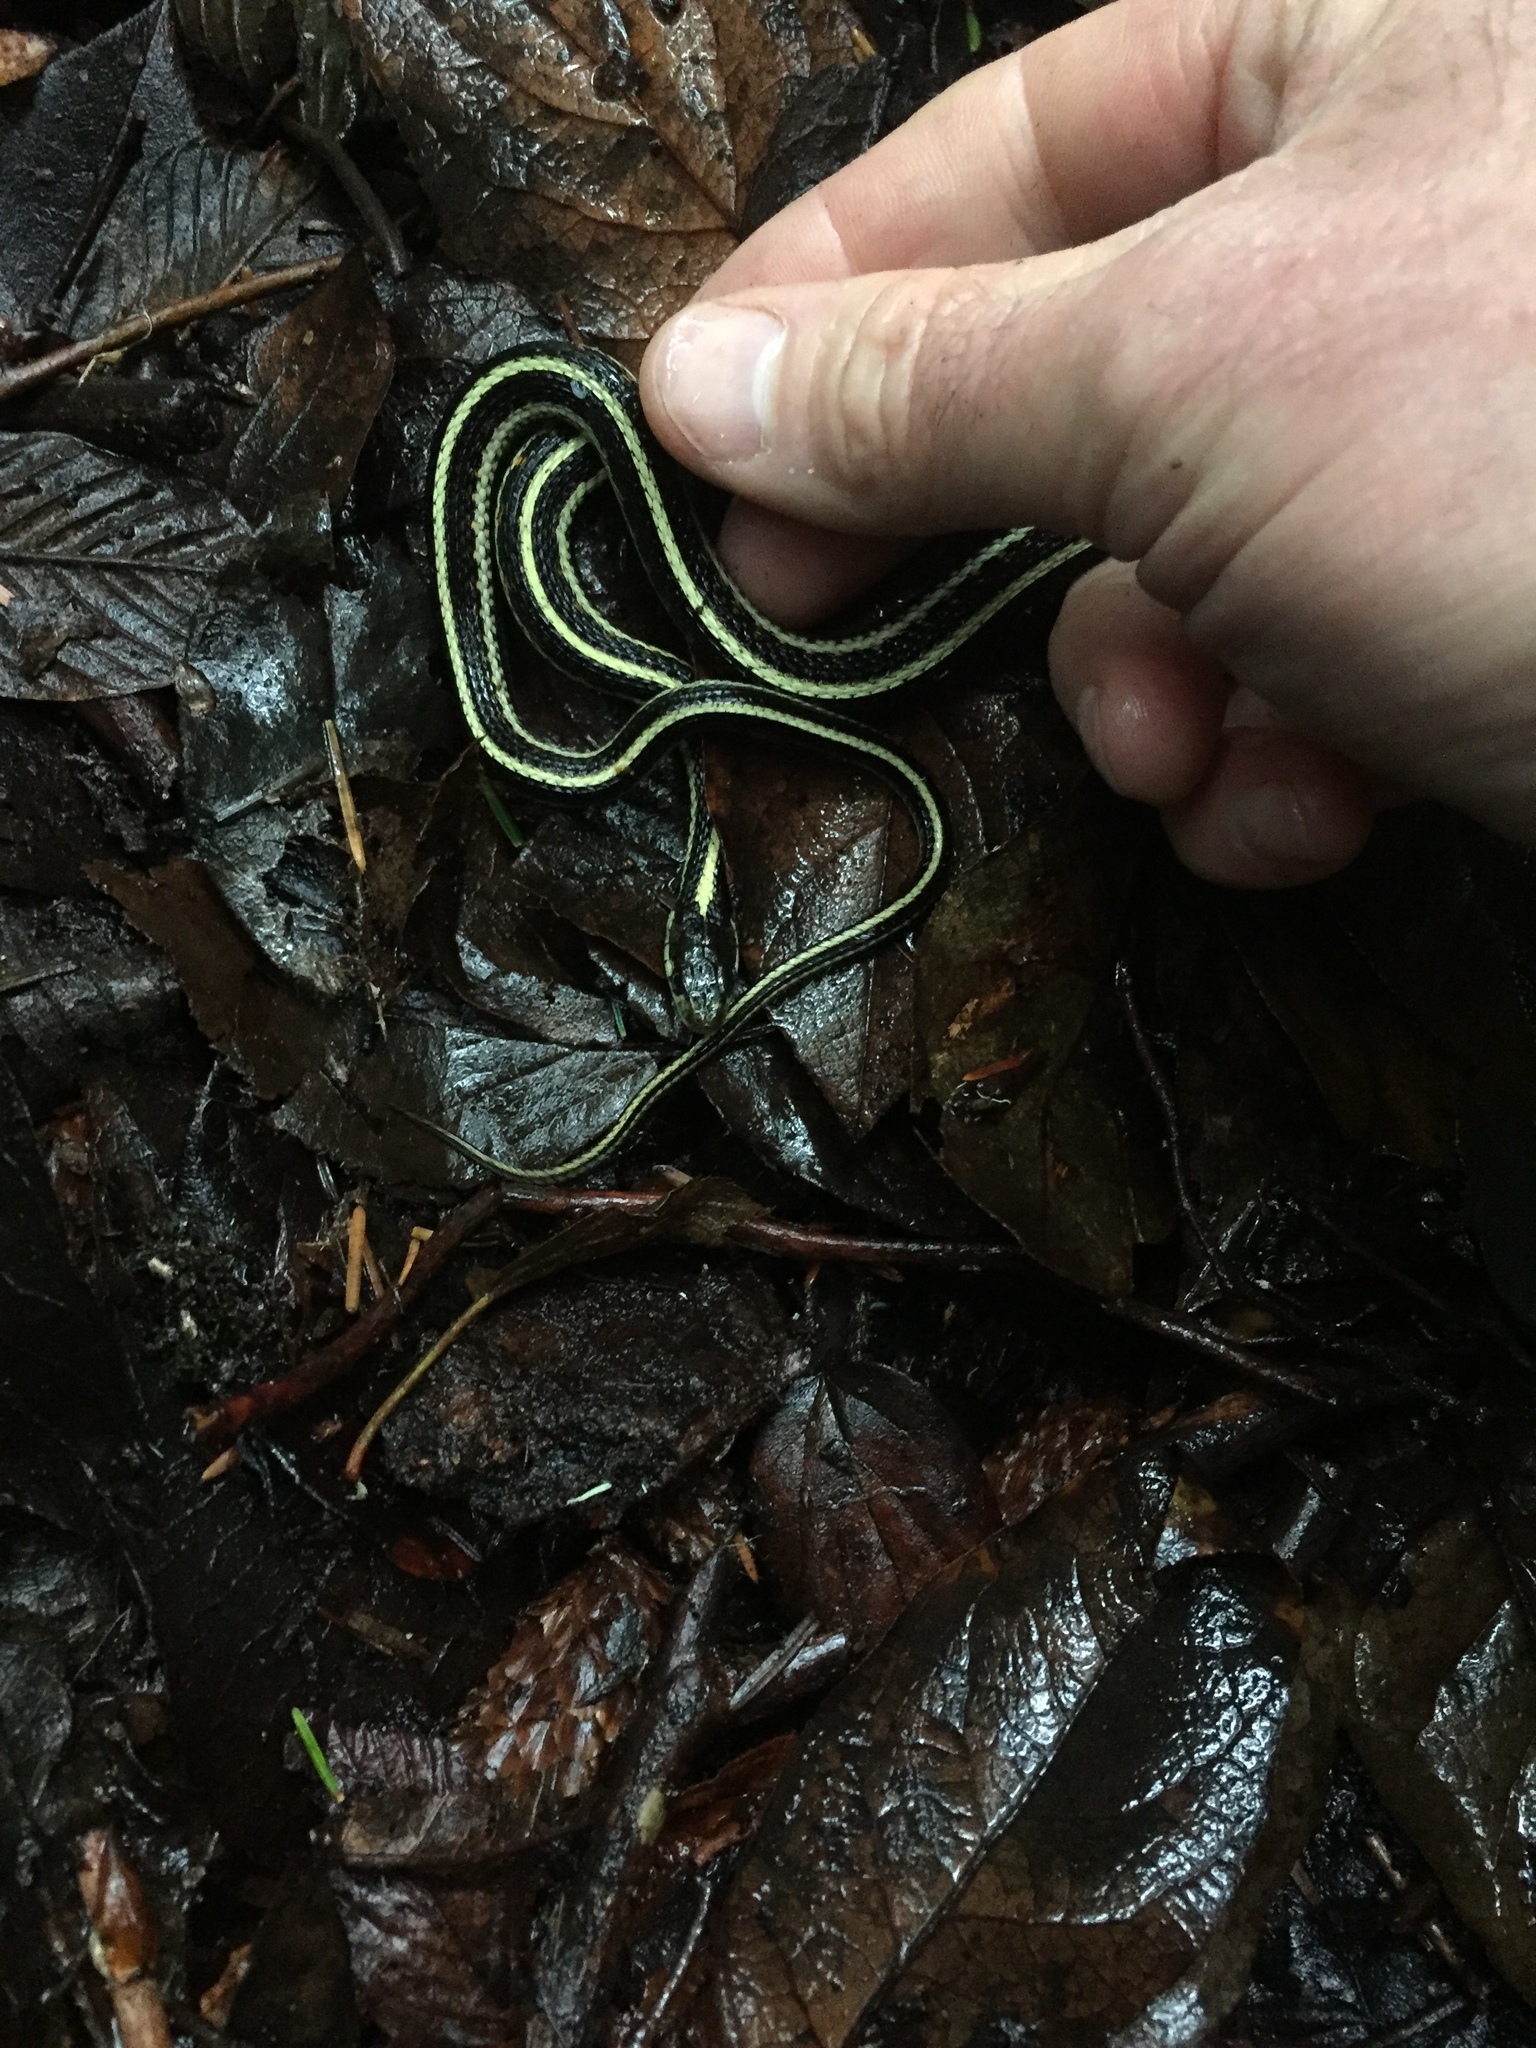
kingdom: Animalia
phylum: Chordata
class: Squamata
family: Colubridae
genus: Thamnophis
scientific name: Thamnophis sirtalis
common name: Common garter snake
